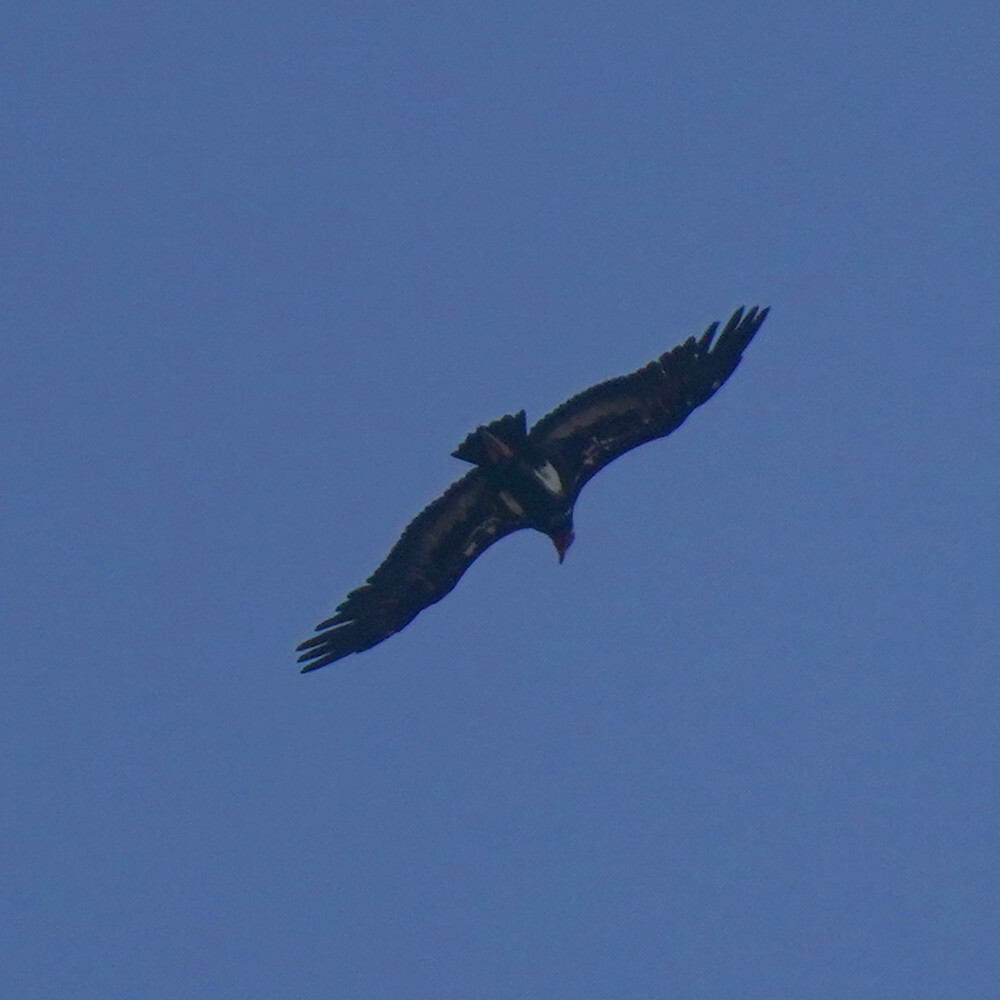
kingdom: Animalia
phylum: Chordata
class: Aves
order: Accipitriformes
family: Accipitridae
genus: Sarcogyps
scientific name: Sarcogyps calvus
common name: Red-headed vulture
